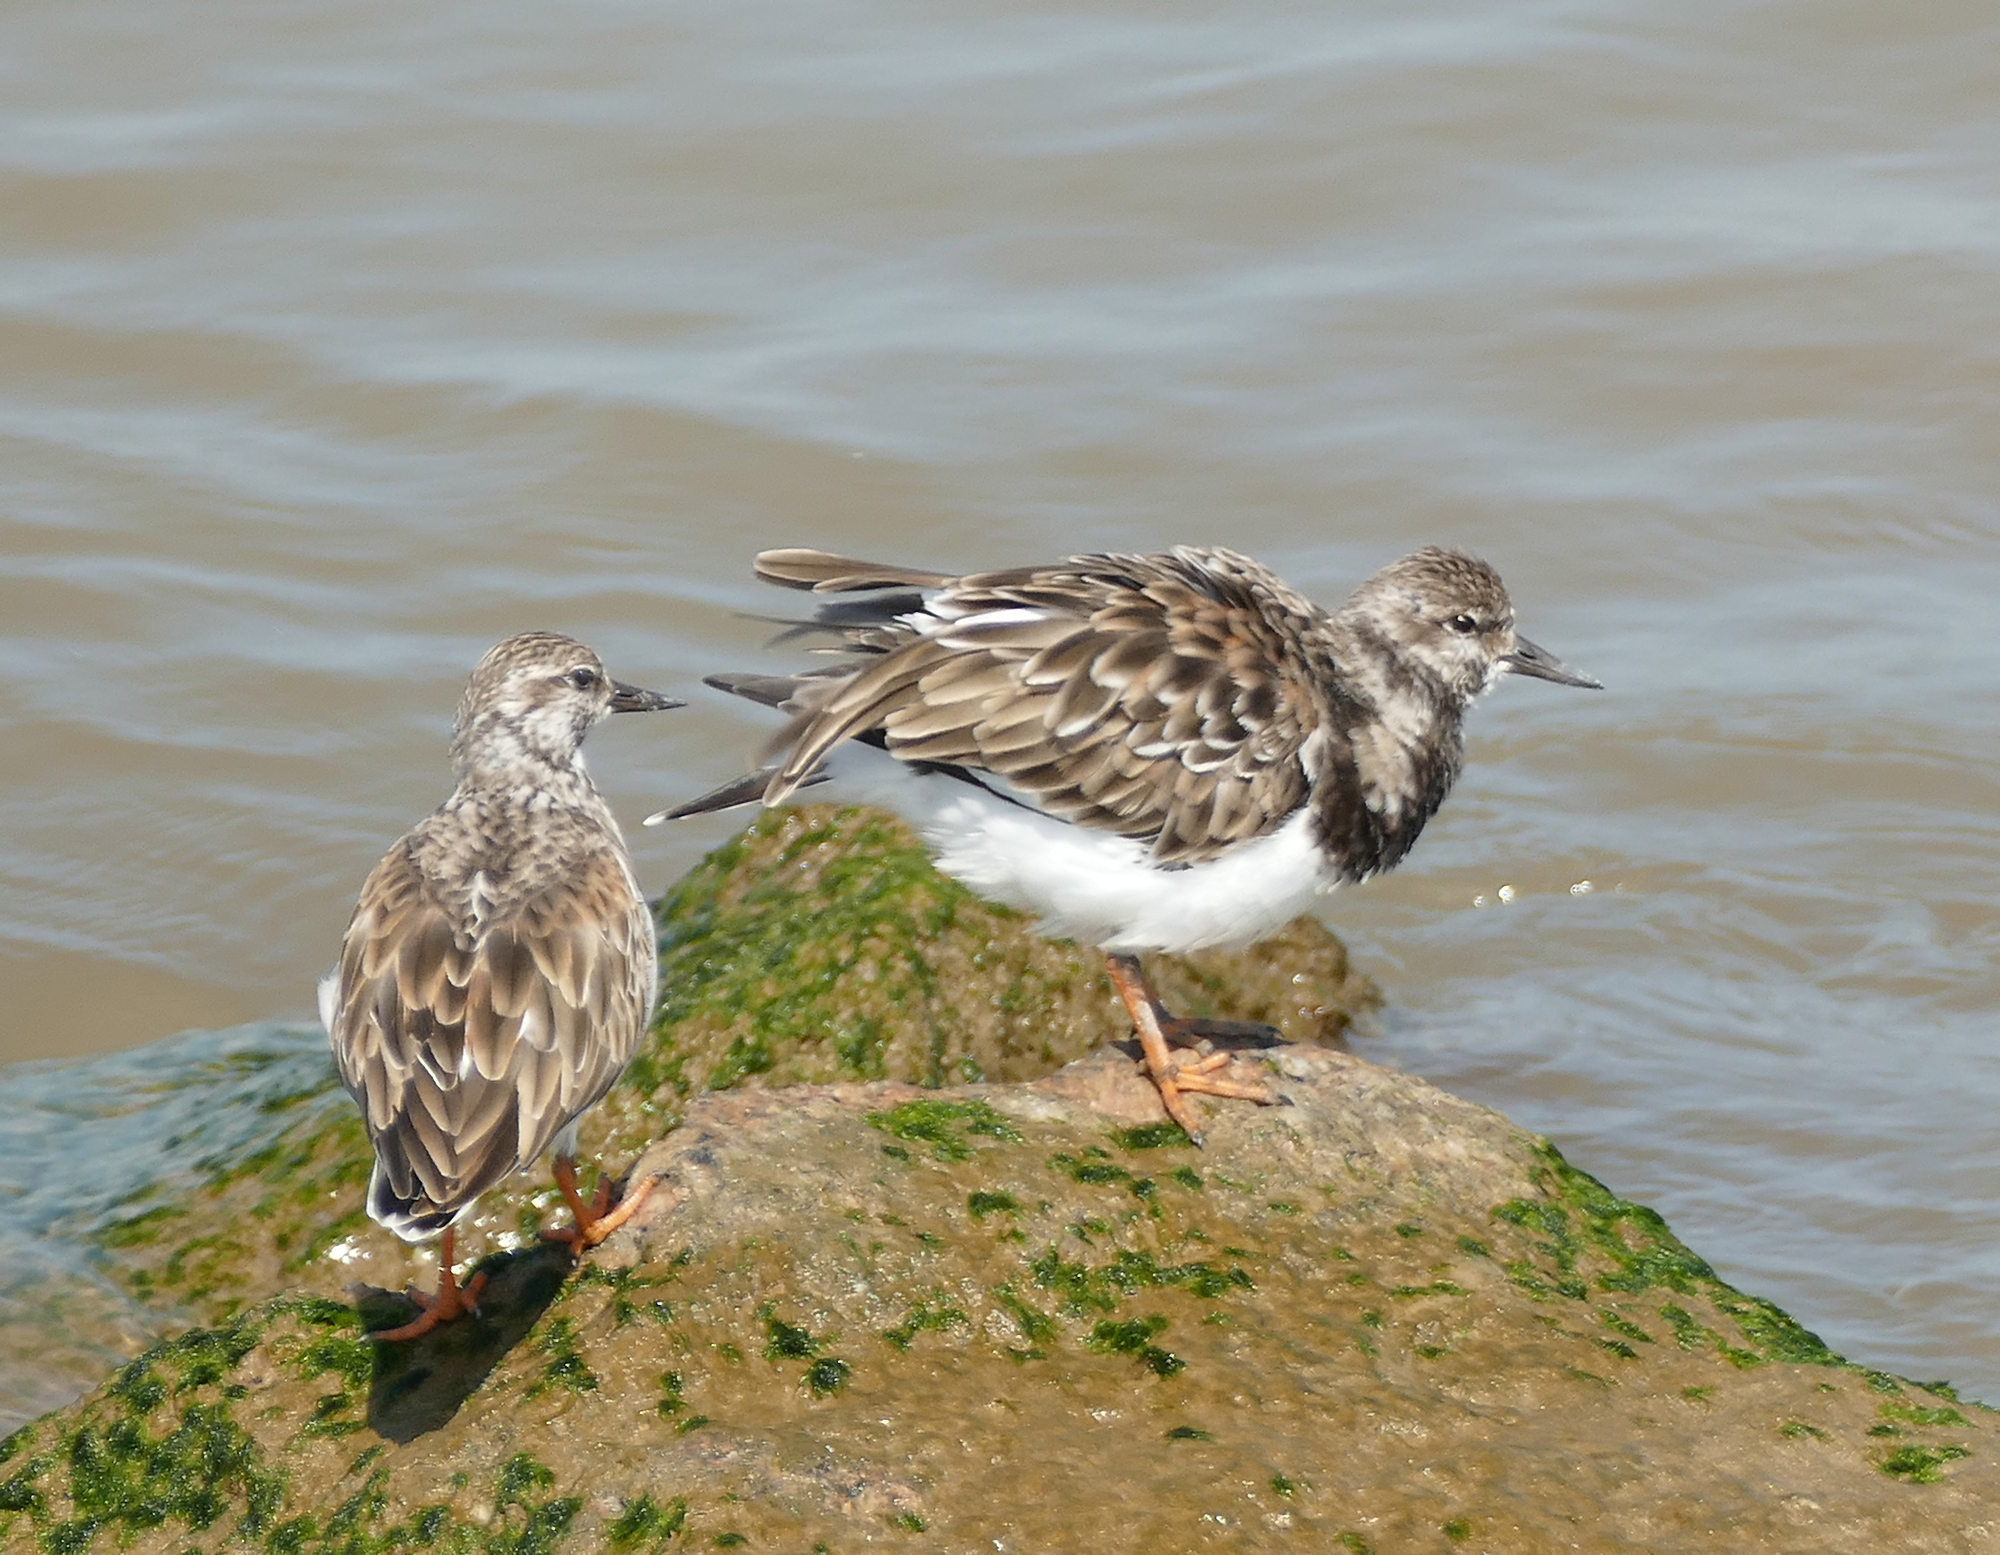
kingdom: Animalia
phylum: Chordata
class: Aves
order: Charadriiformes
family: Scolopacidae
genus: Arenaria
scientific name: Arenaria interpres
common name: Ruddy turnstone
